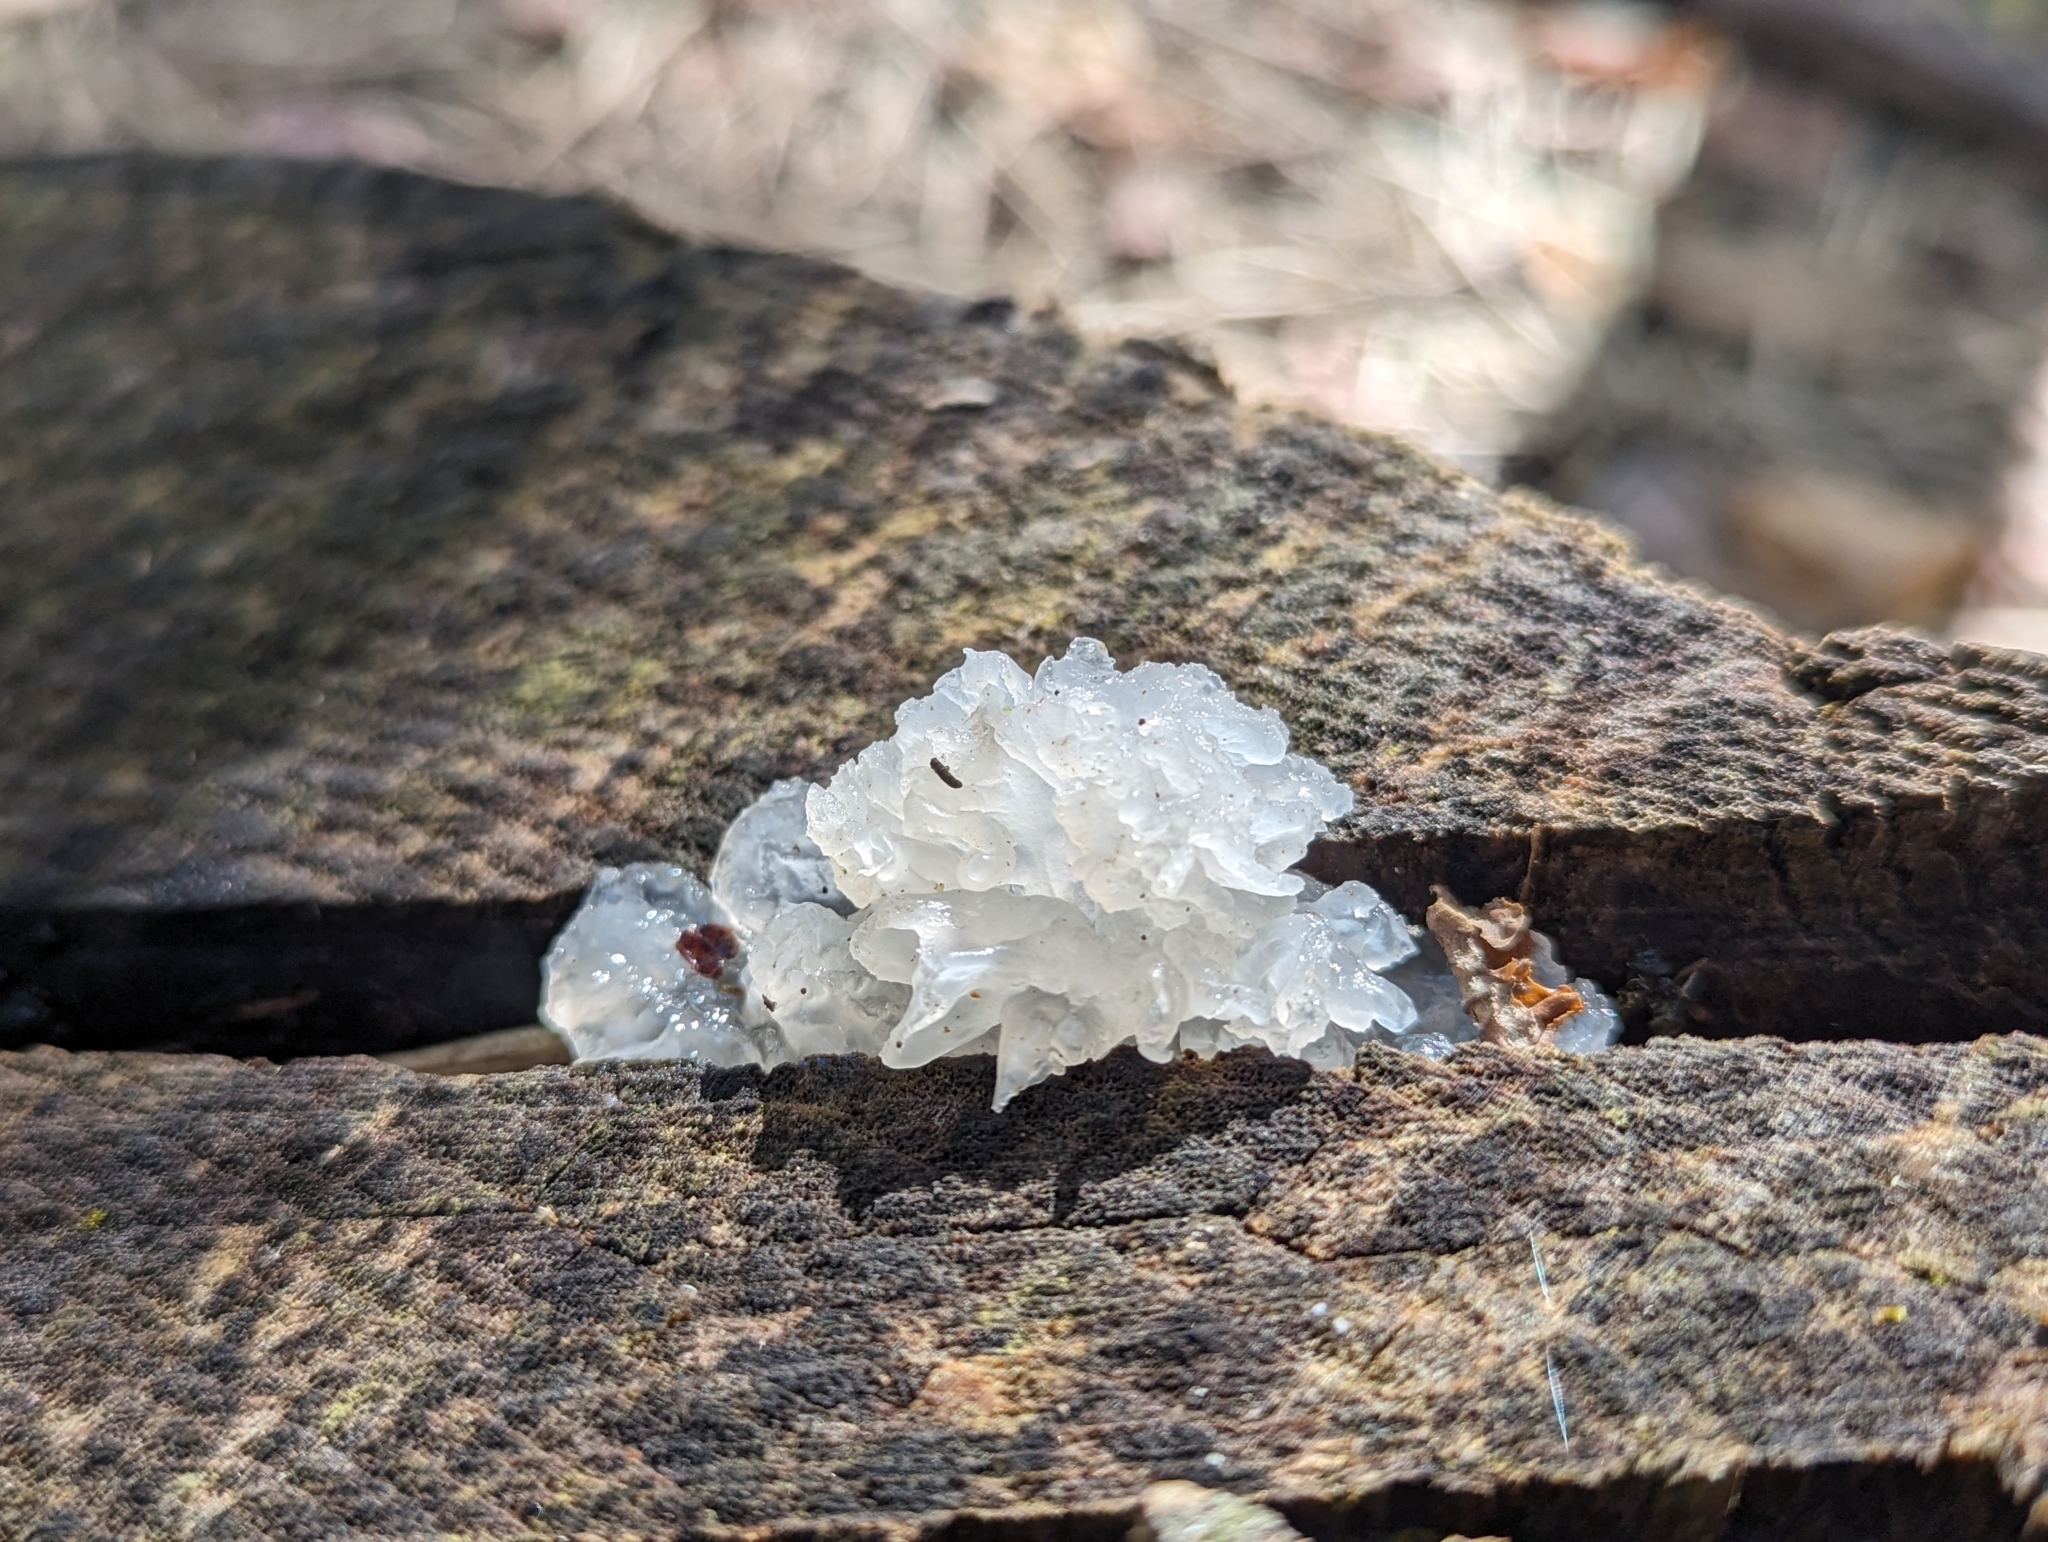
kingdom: Fungi
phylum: Basidiomycota
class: Tremellomycetes
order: Tremellales
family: Tremellaceae
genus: Tremella
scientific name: Tremella fuciformis
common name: Snow fungus
